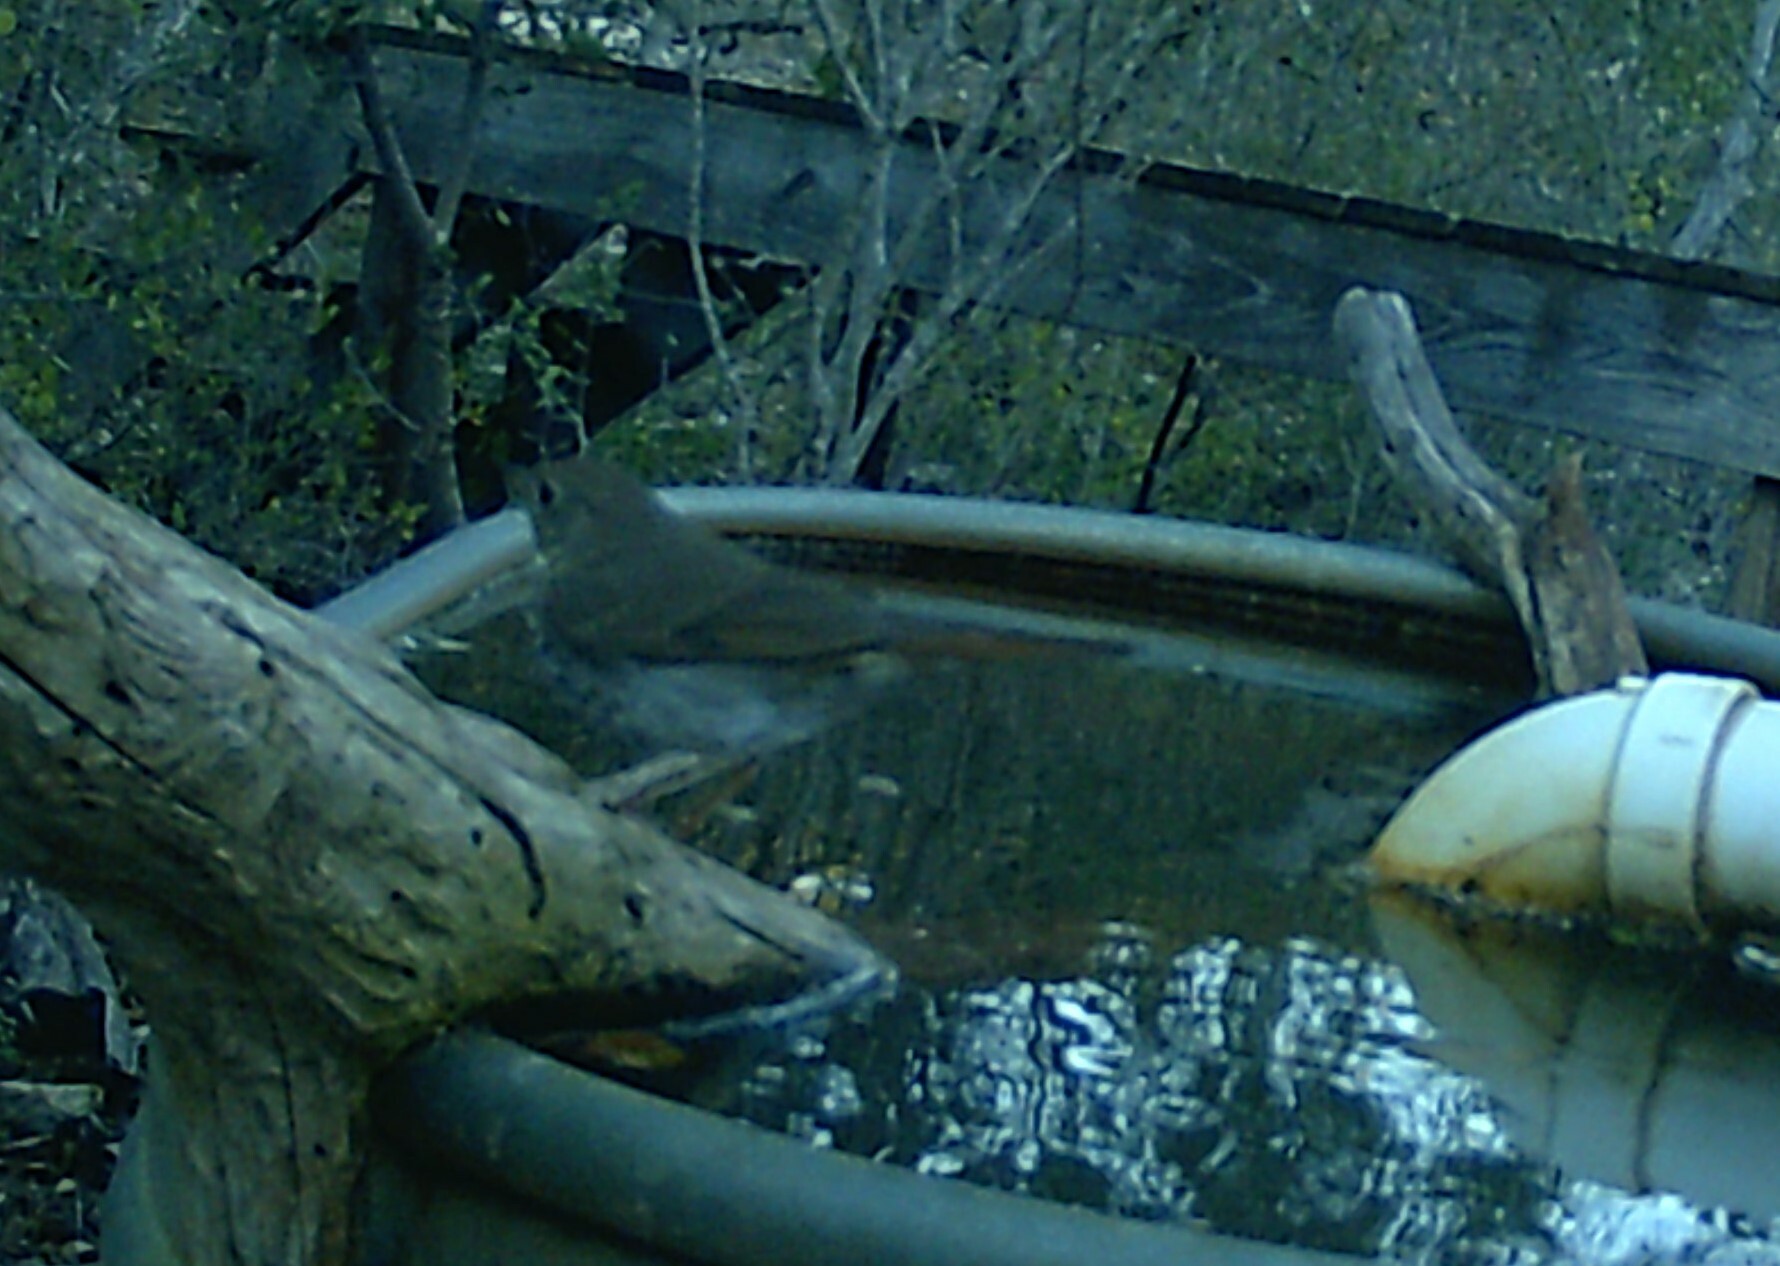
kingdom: Animalia
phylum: Chordata
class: Aves
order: Passeriformes
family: Turdidae
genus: Catharus
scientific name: Catharus guttatus
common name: Hermit thrush
